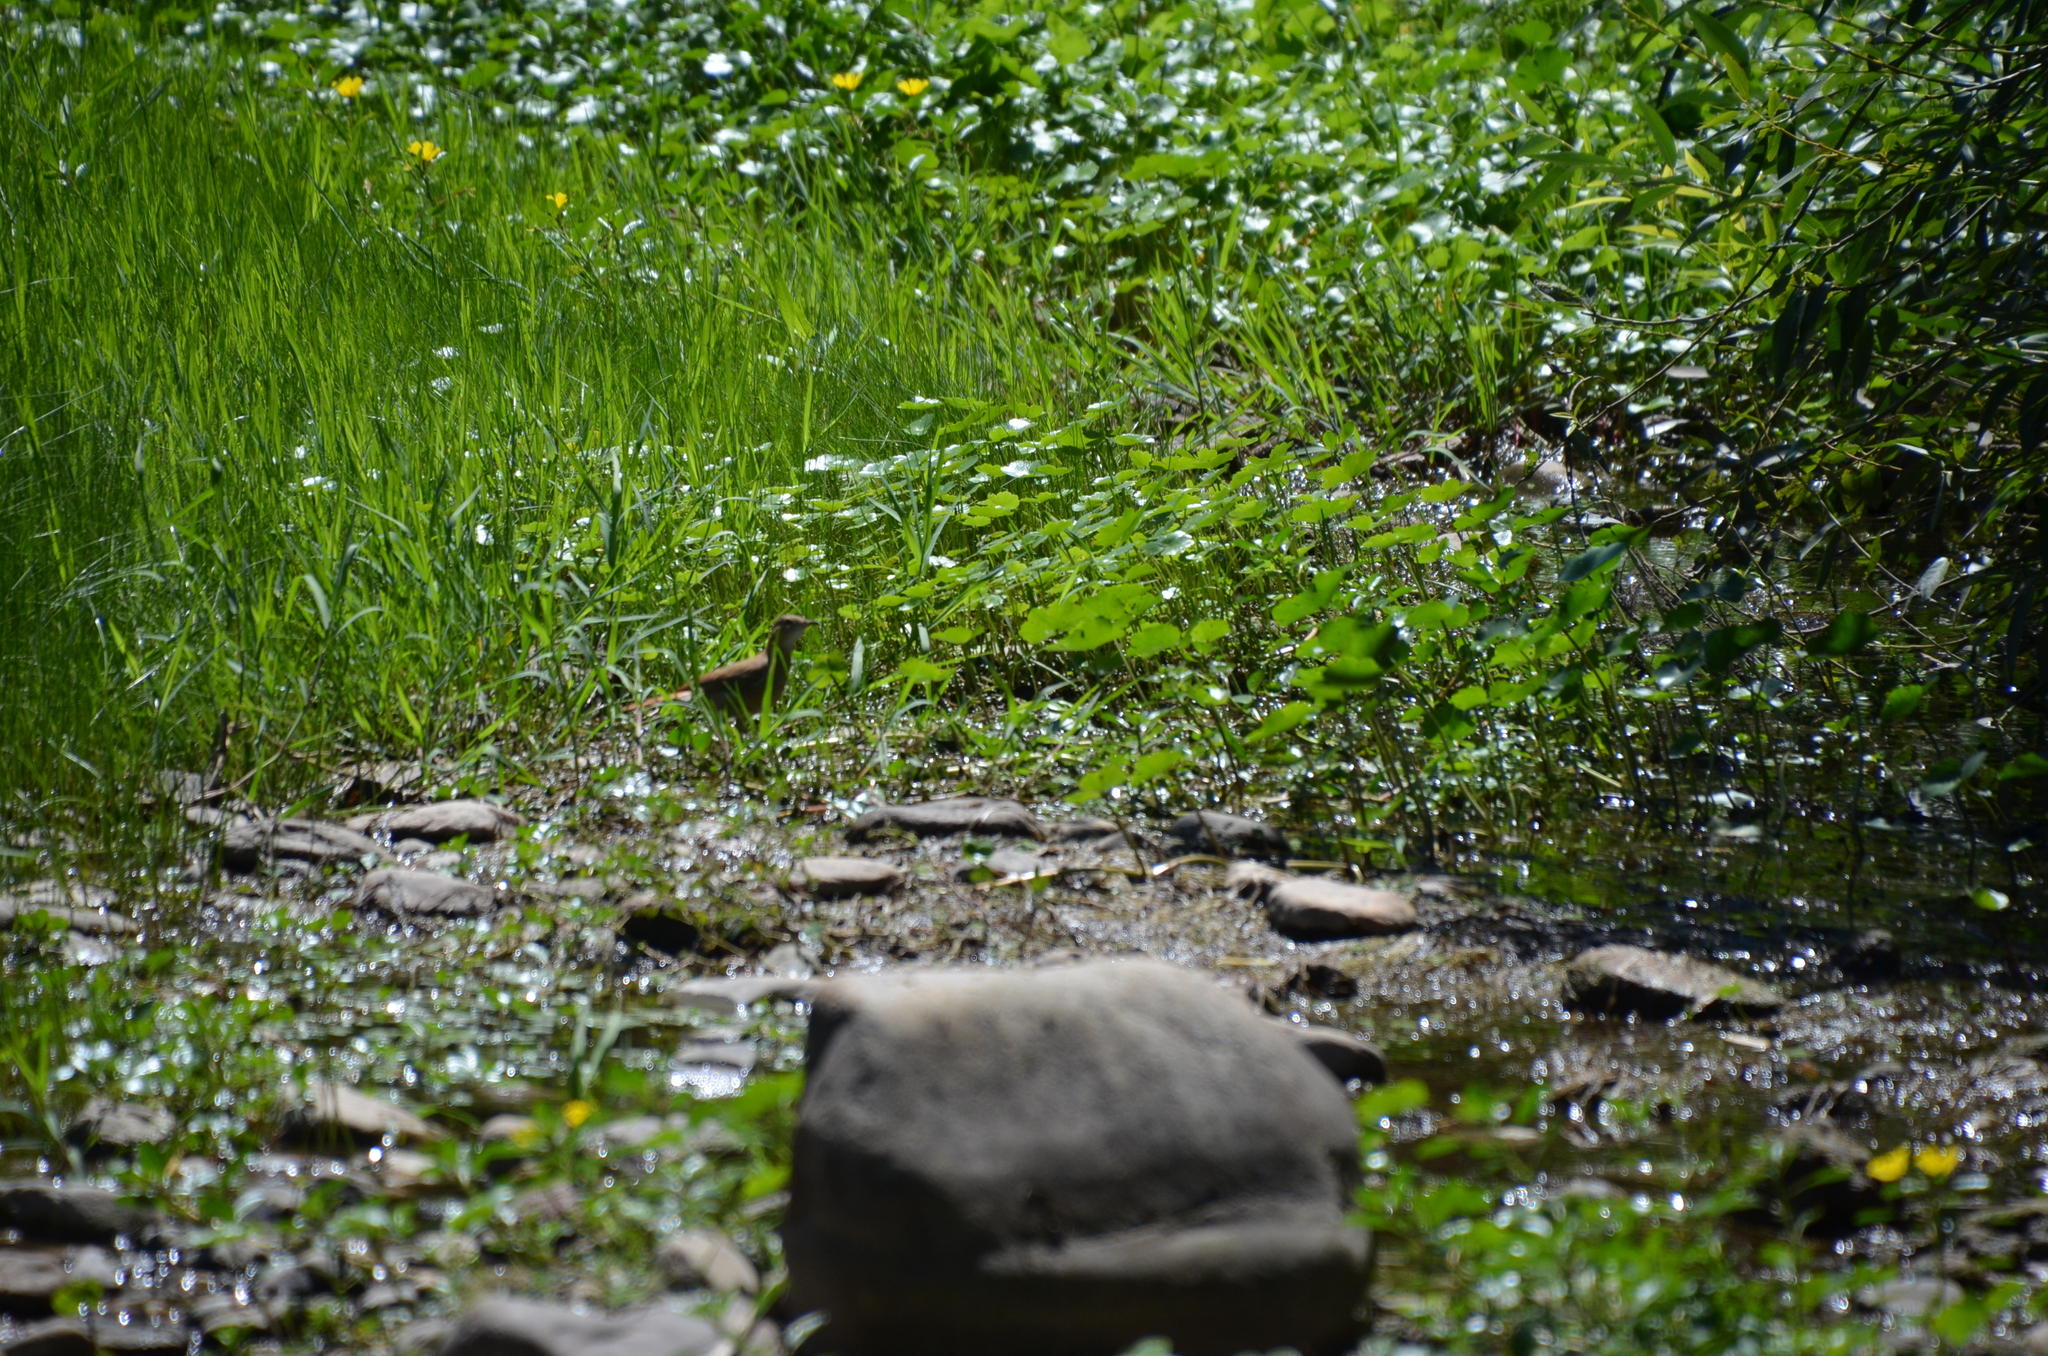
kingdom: Animalia
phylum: Chordata
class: Aves
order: Passeriformes
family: Furnariidae
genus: Furnarius
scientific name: Furnarius rufus
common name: Rufous hornero
